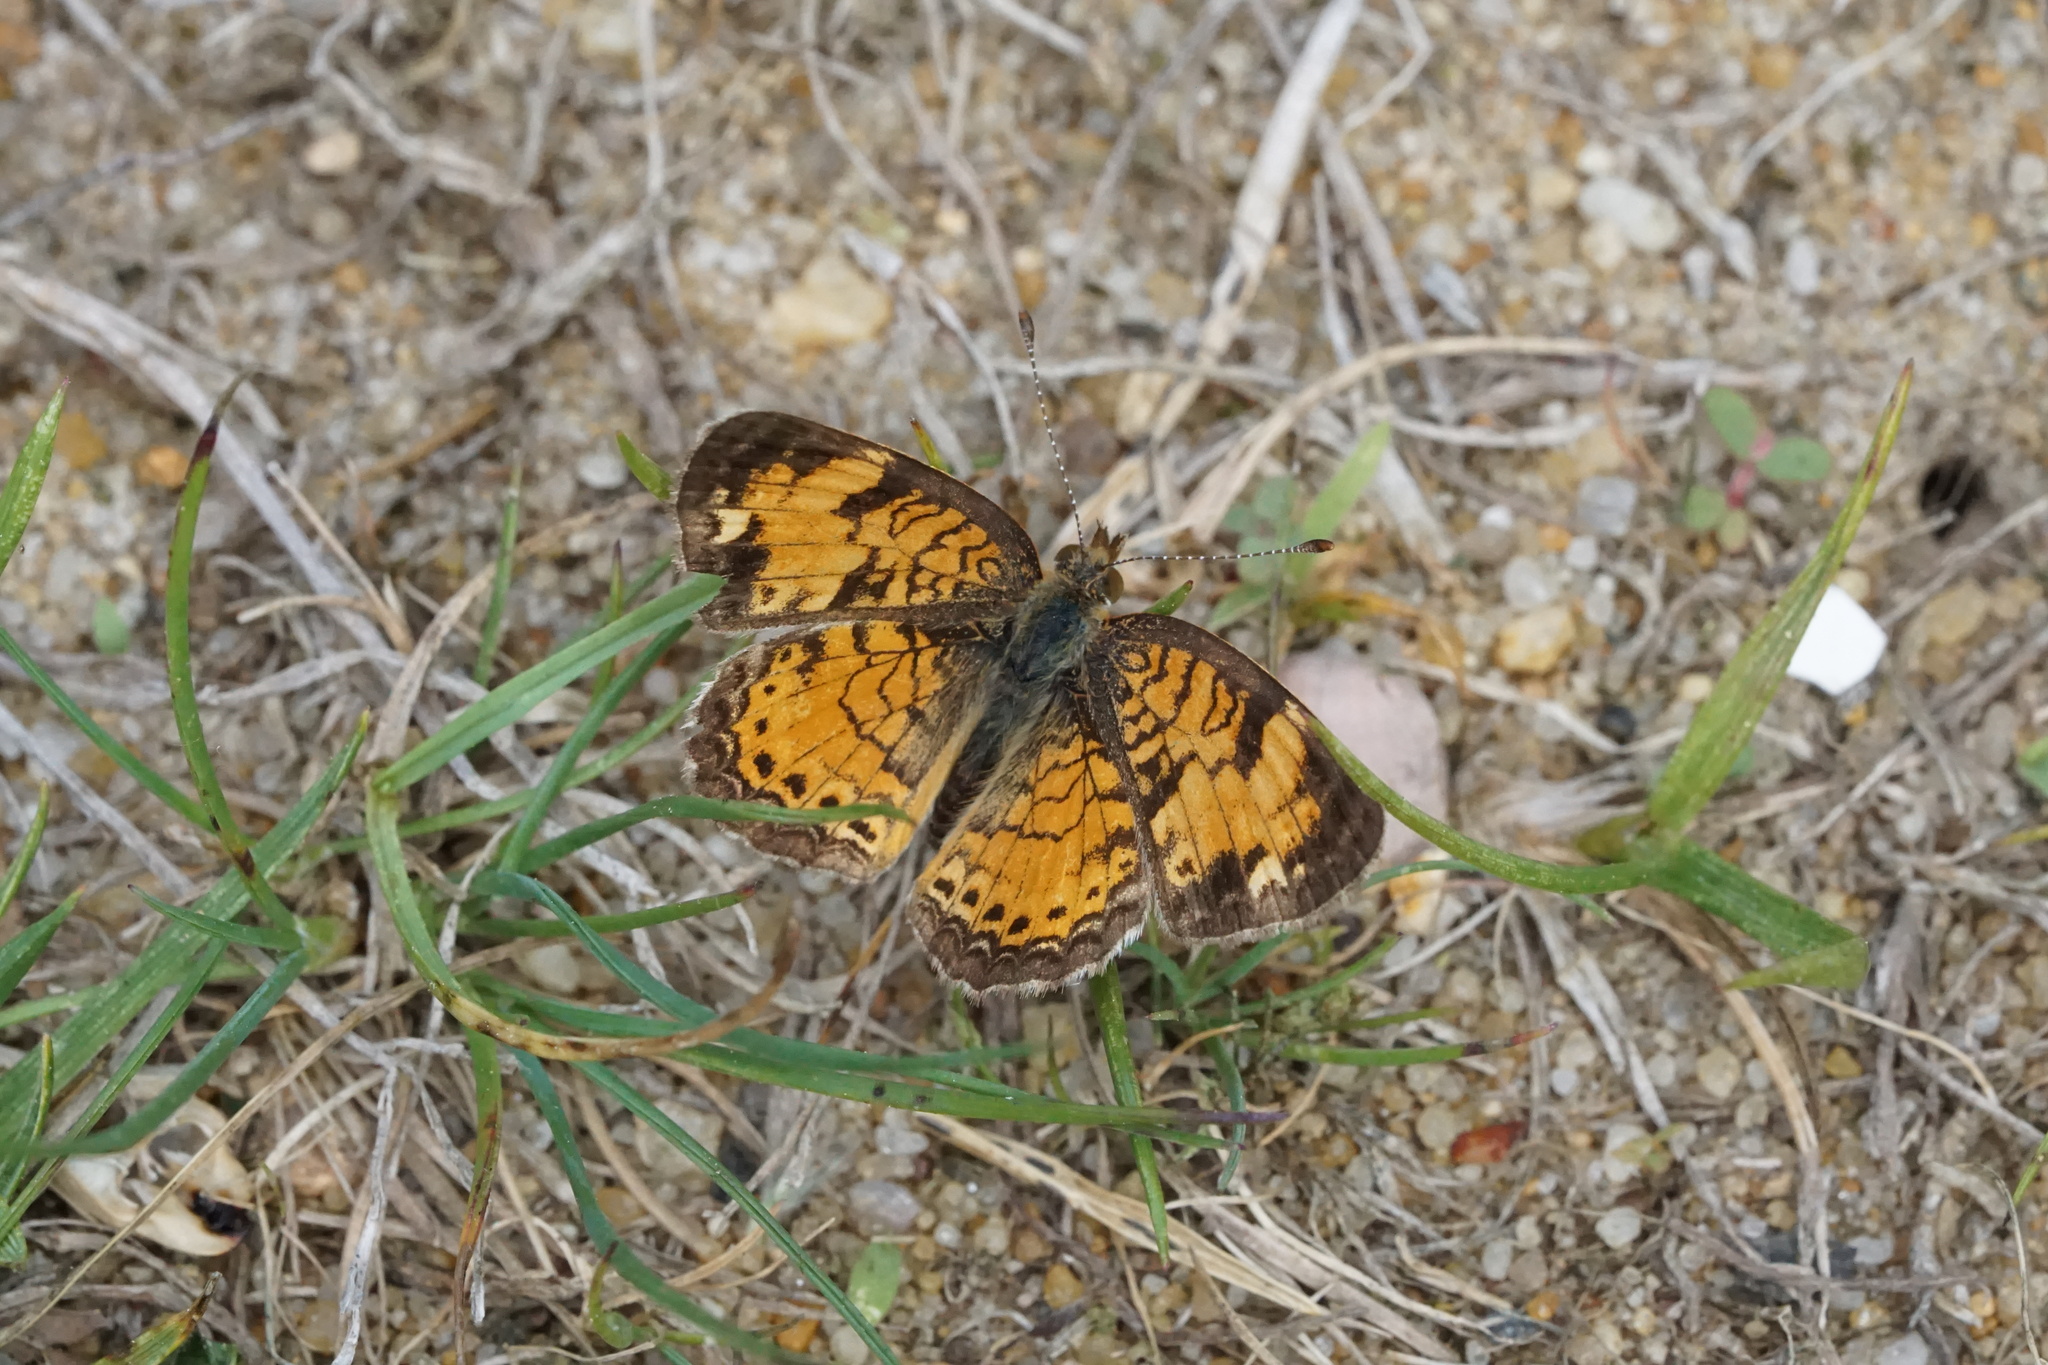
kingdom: Animalia
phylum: Arthropoda
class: Insecta
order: Lepidoptera
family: Nymphalidae
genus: Phyciodes
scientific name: Phyciodes tharos
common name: Pearl crescent
